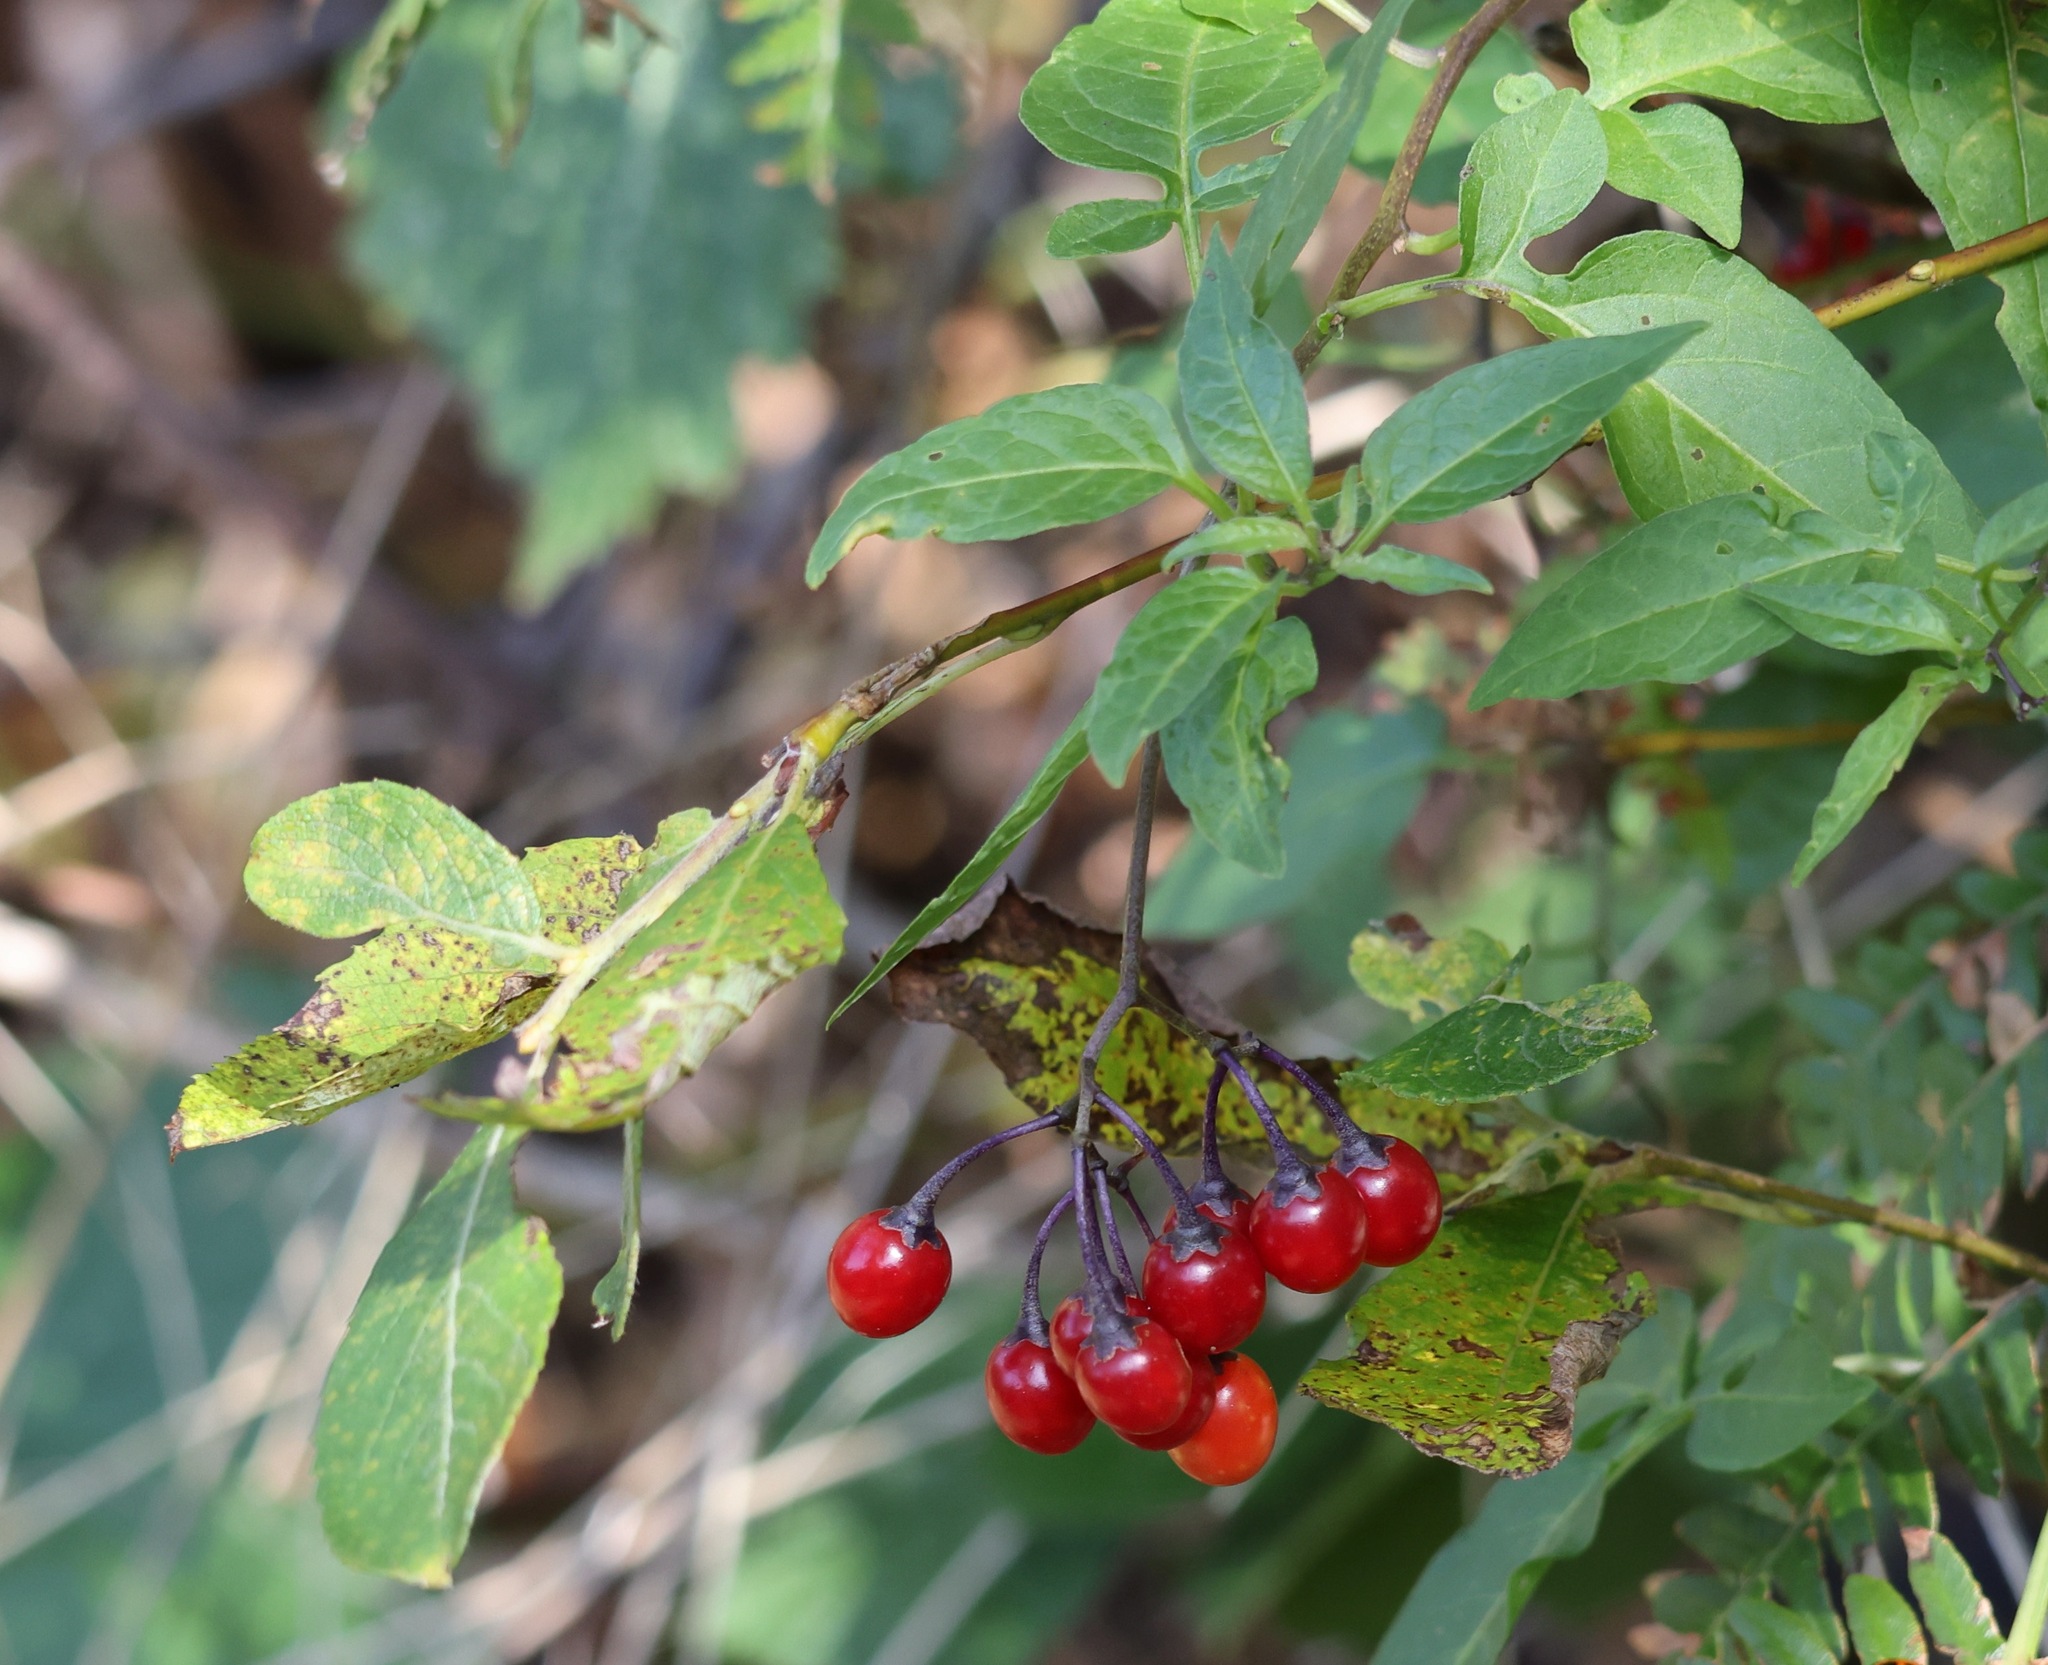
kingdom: Plantae
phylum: Tracheophyta
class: Magnoliopsida
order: Solanales
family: Solanaceae
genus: Solanum
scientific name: Solanum dulcamara
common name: Climbing nightshade
